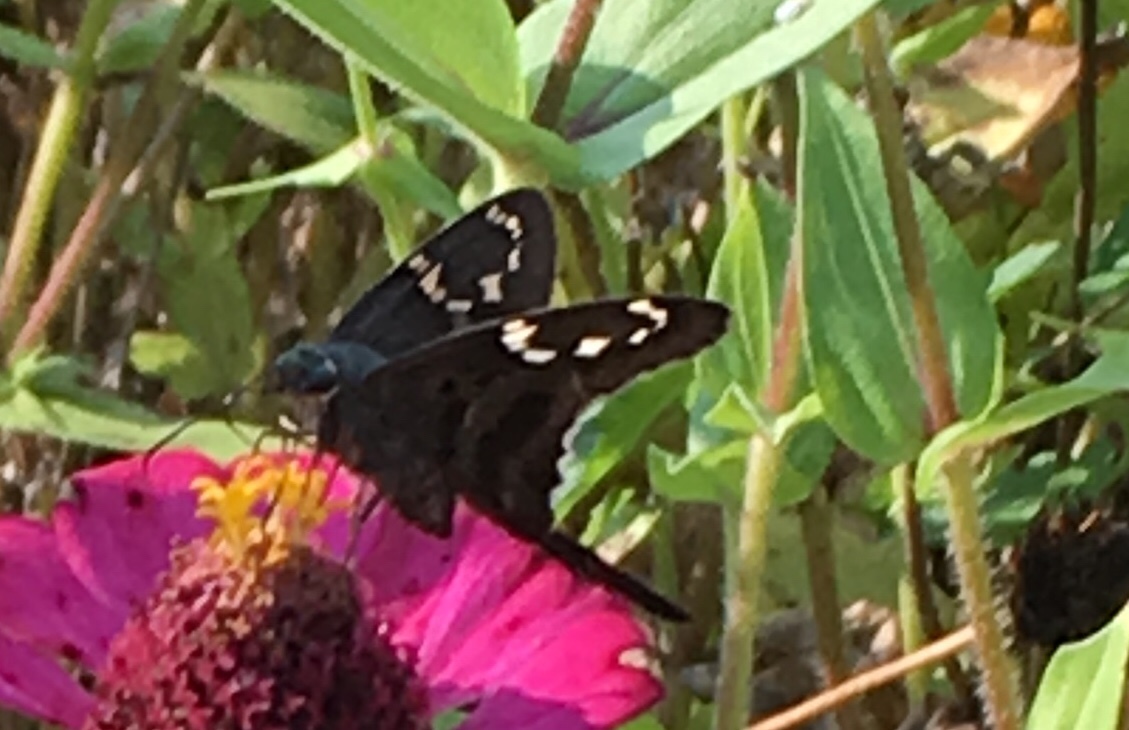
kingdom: Animalia
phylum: Arthropoda
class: Insecta
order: Lepidoptera
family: Hesperiidae
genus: Urbanus
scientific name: Urbanus proteus
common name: Long-tailed skipper
